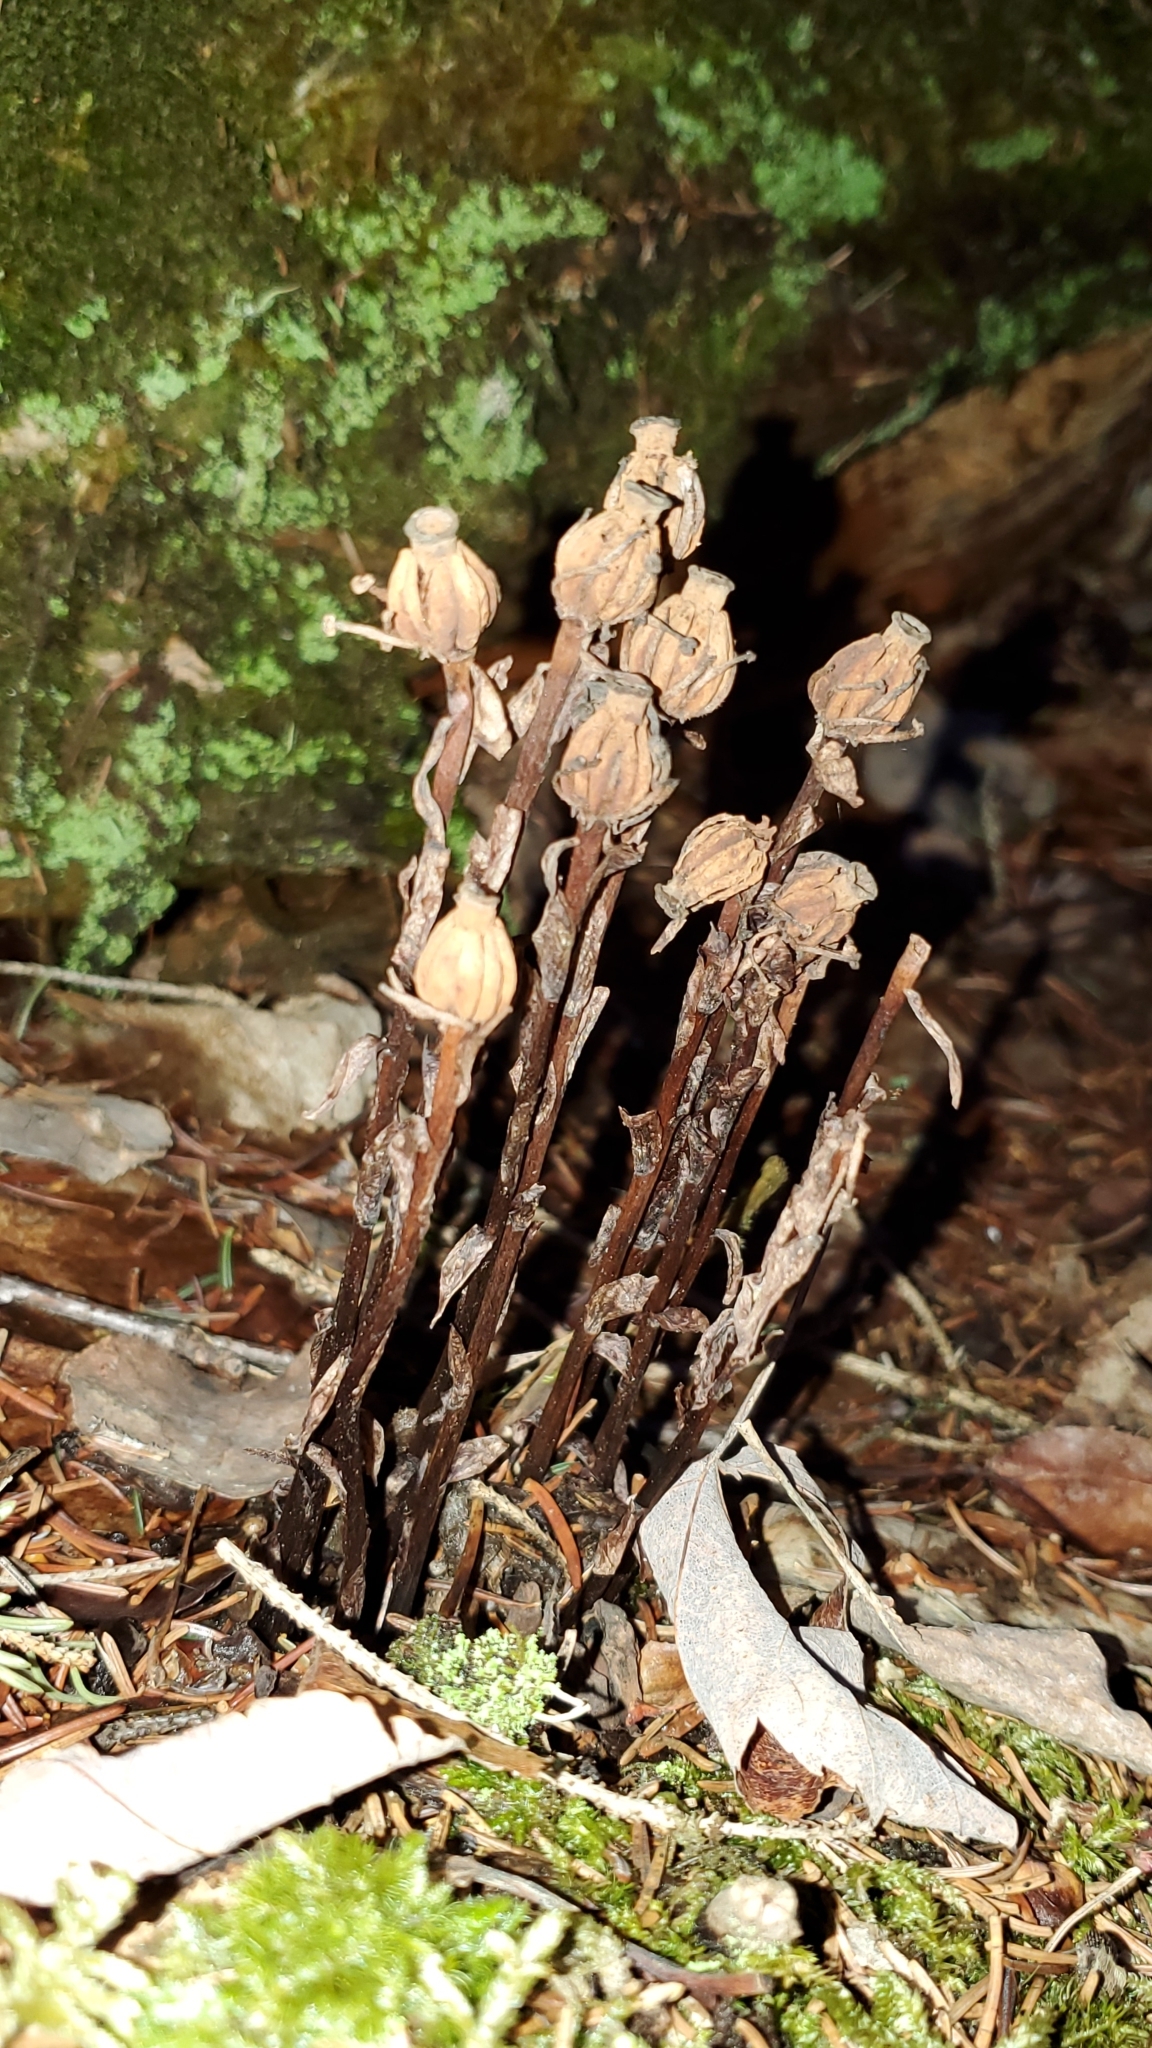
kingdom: Plantae
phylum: Tracheophyta
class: Magnoliopsida
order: Ericales
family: Ericaceae
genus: Monotropa
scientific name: Monotropa uniflora
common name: Convulsion root
